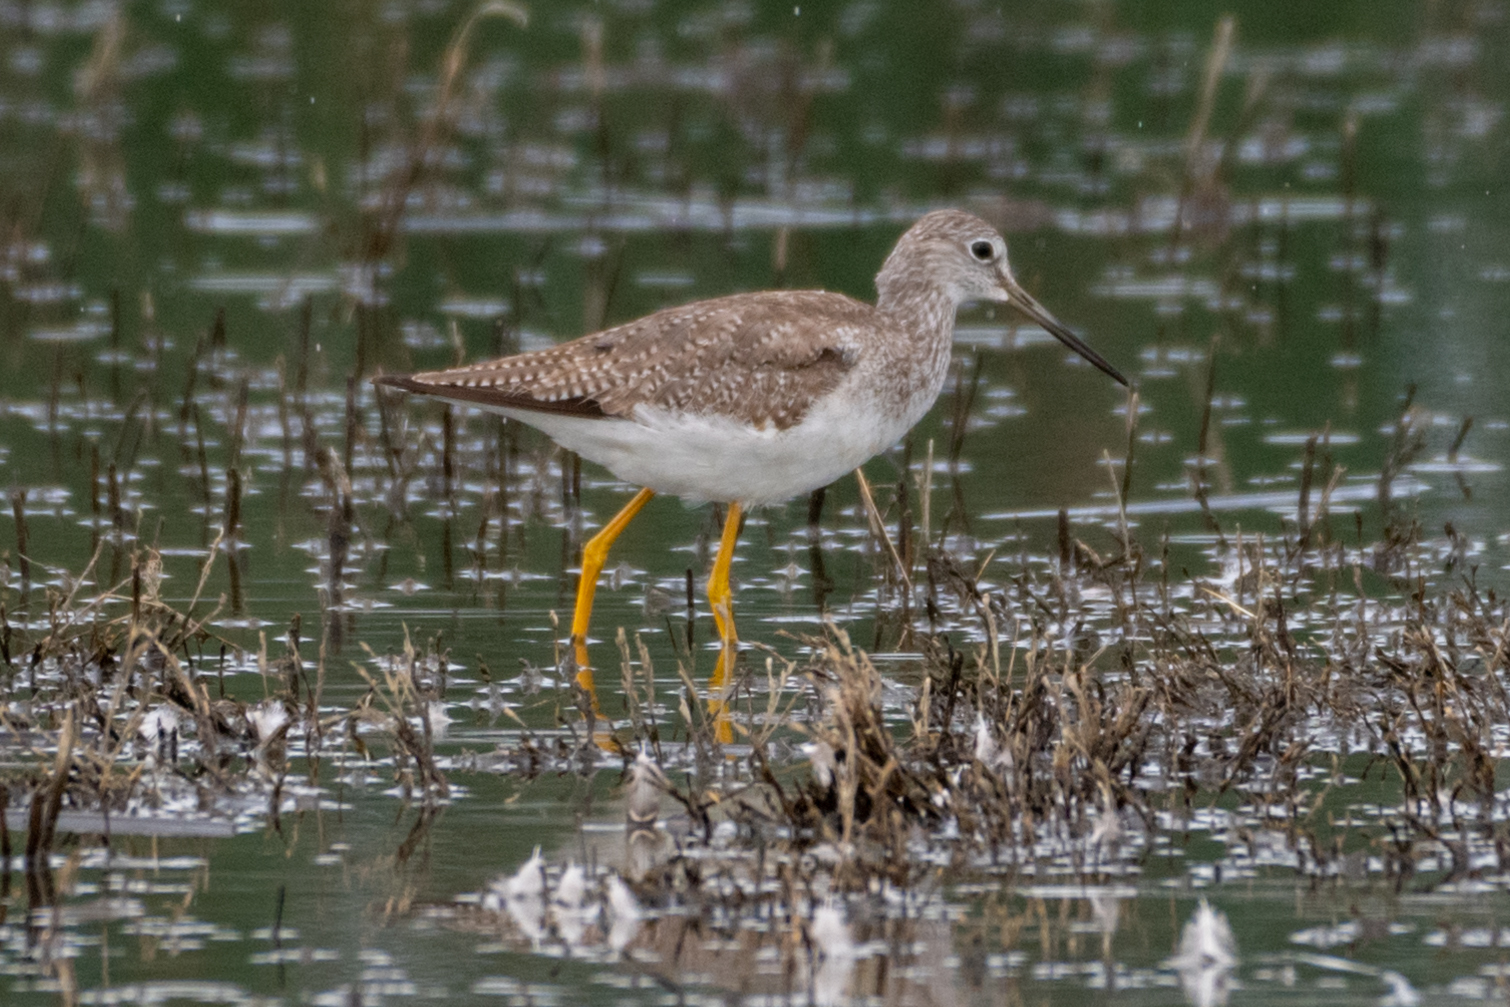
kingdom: Animalia
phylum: Chordata
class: Aves
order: Charadriiformes
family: Scolopacidae
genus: Tringa
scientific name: Tringa melanoleuca
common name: Greater yellowlegs
